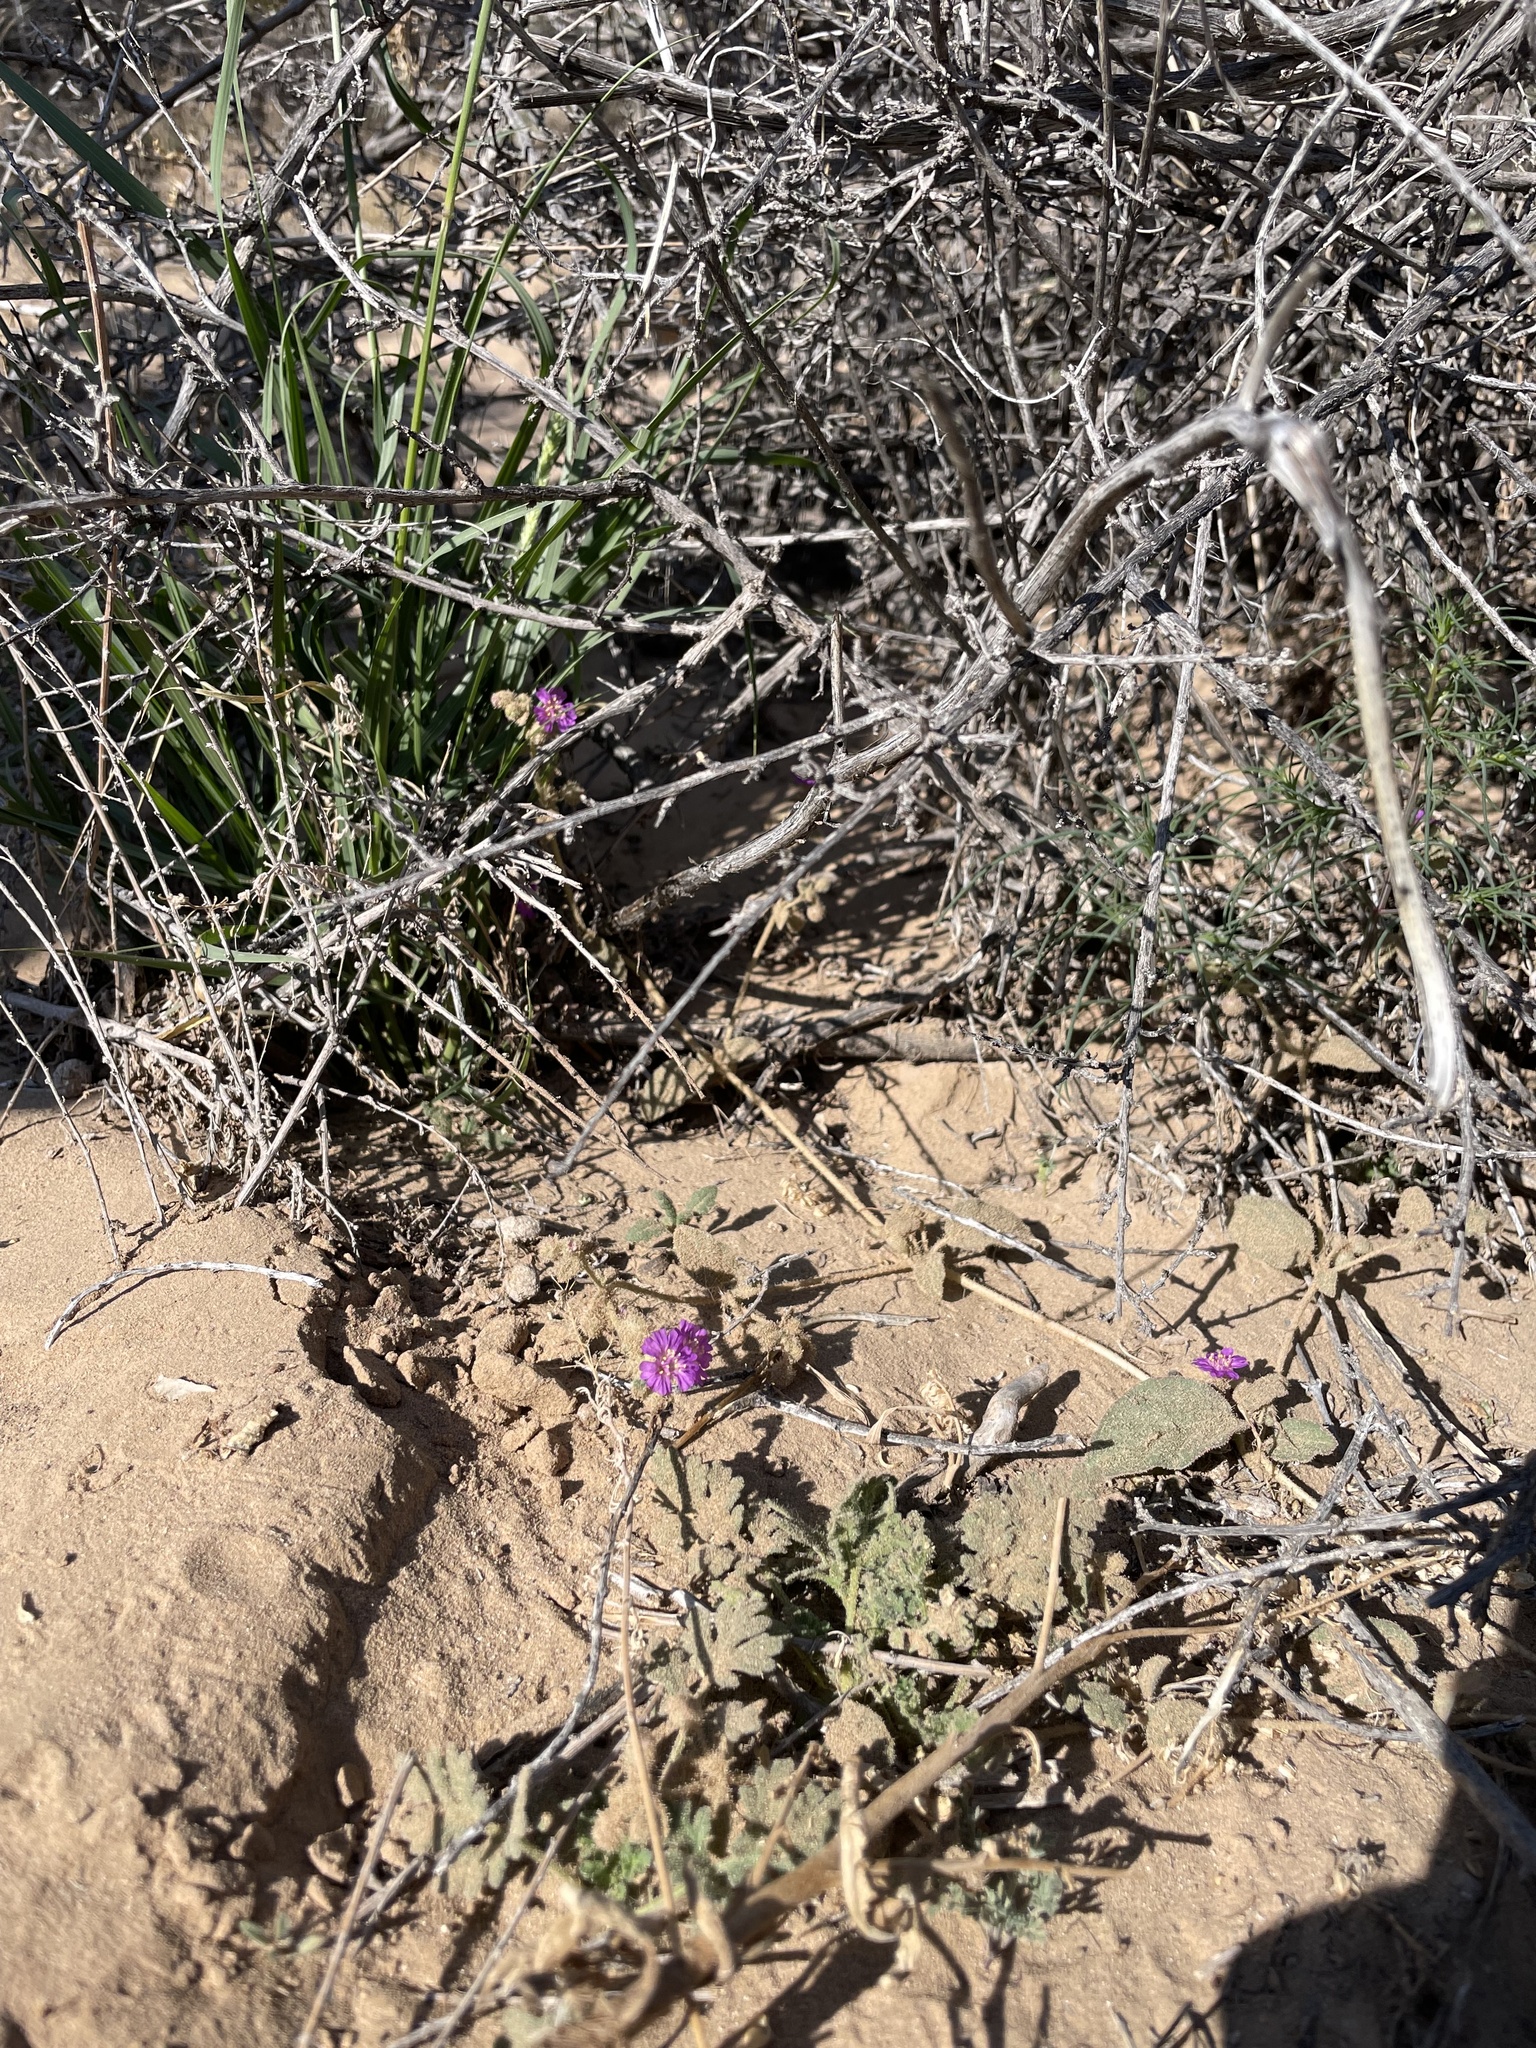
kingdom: Plantae
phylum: Tracheophyta
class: Magnoliopsida
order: Caryophyllales
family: Nyctaginaceae
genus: Allionia
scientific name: Allionia incarnata
